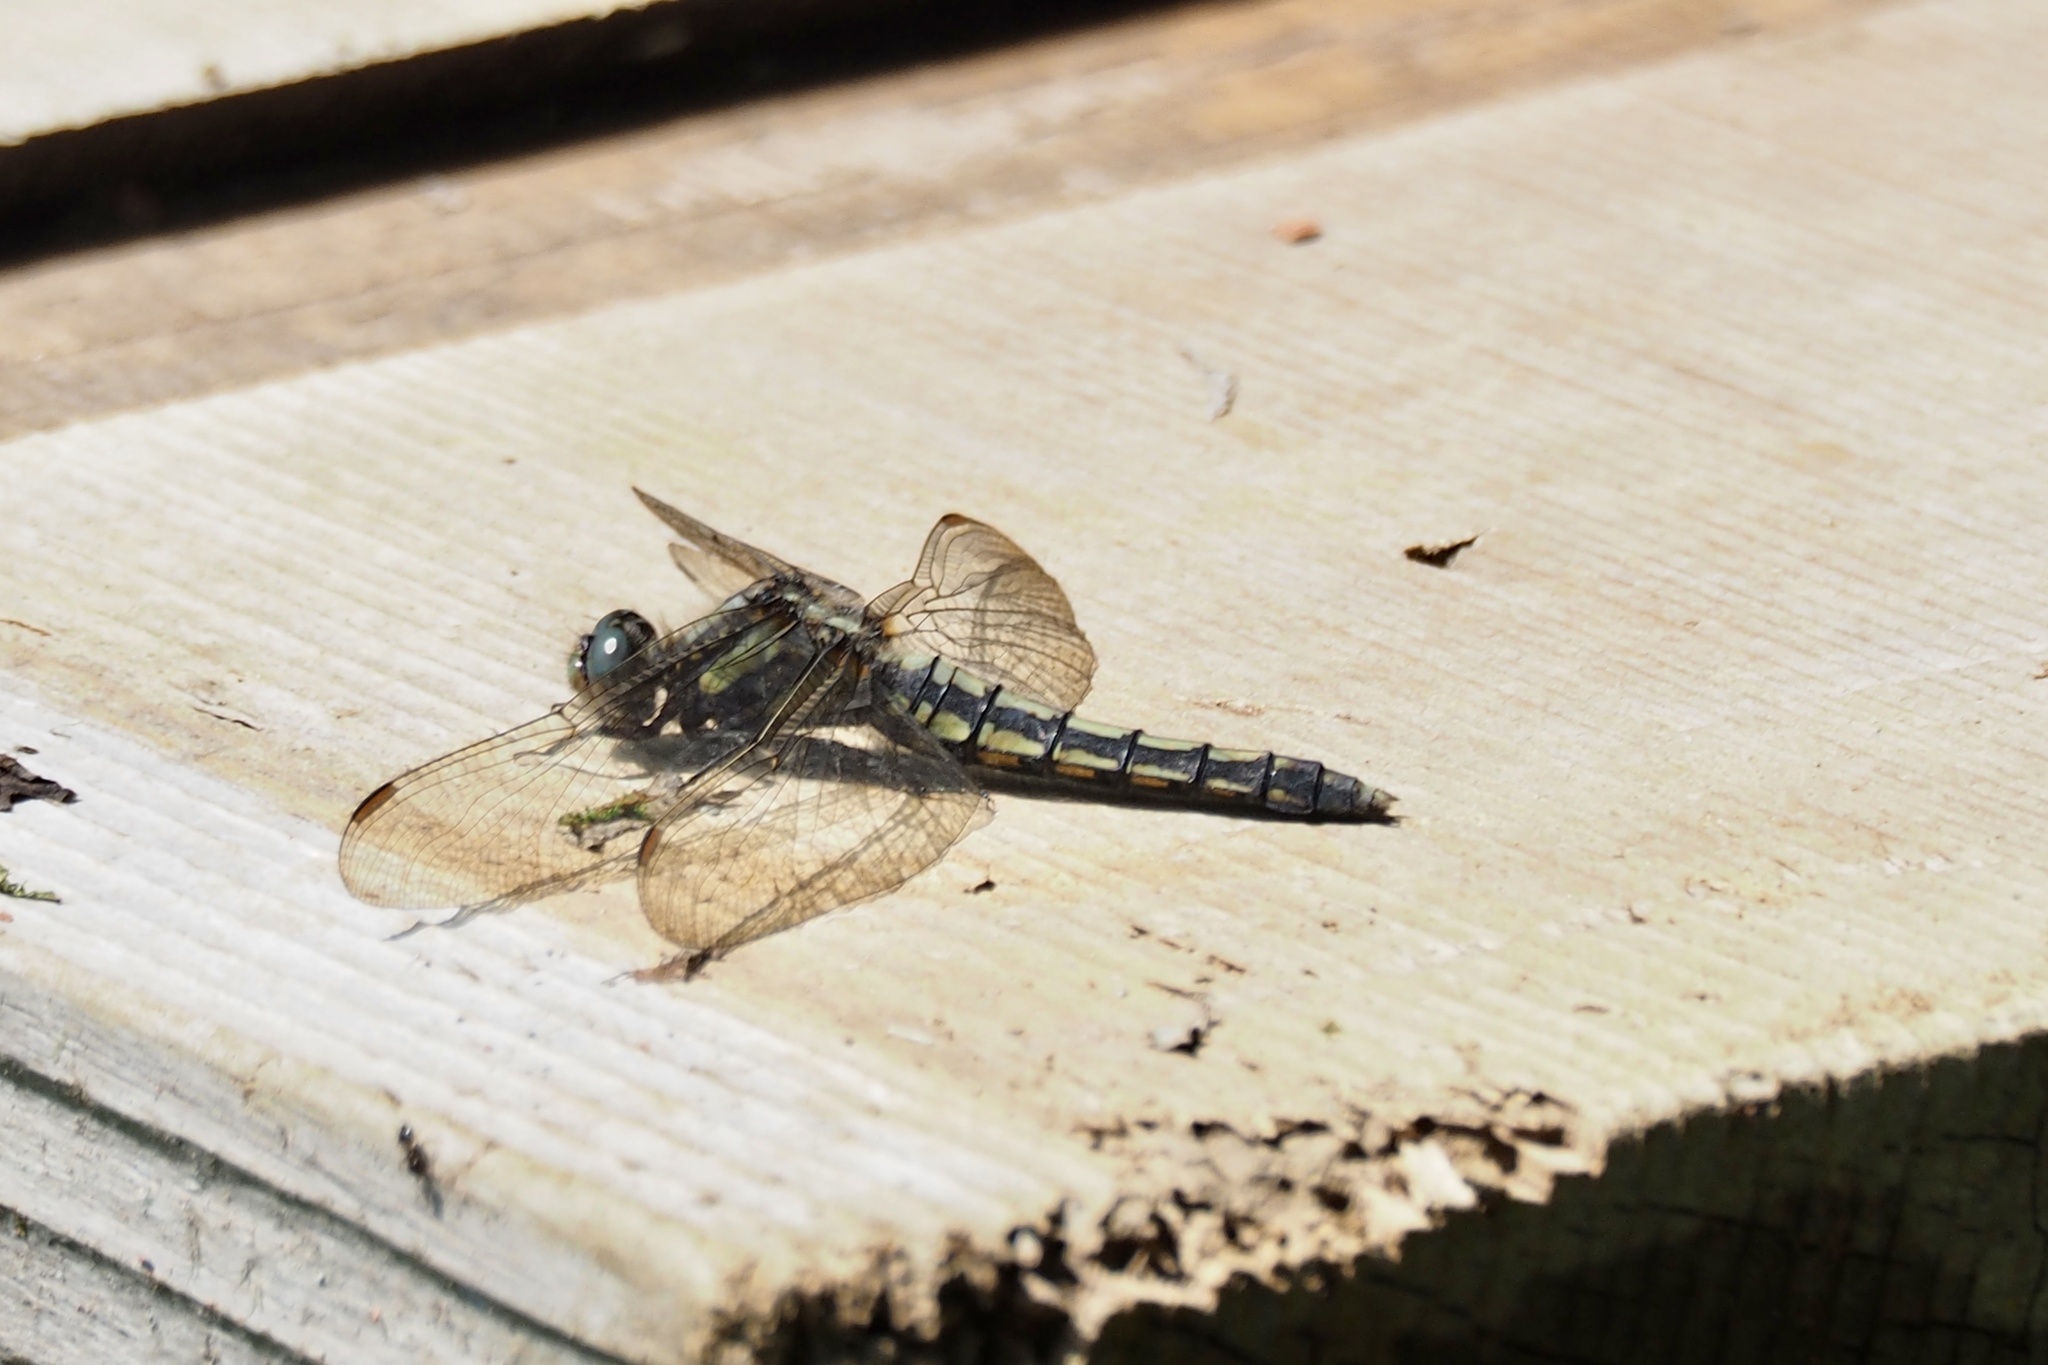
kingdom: Animalia
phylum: Arthropoda
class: Insecta
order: Odonata
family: Libellulidae
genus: Orthetrum
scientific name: Orthetrum japonicum
